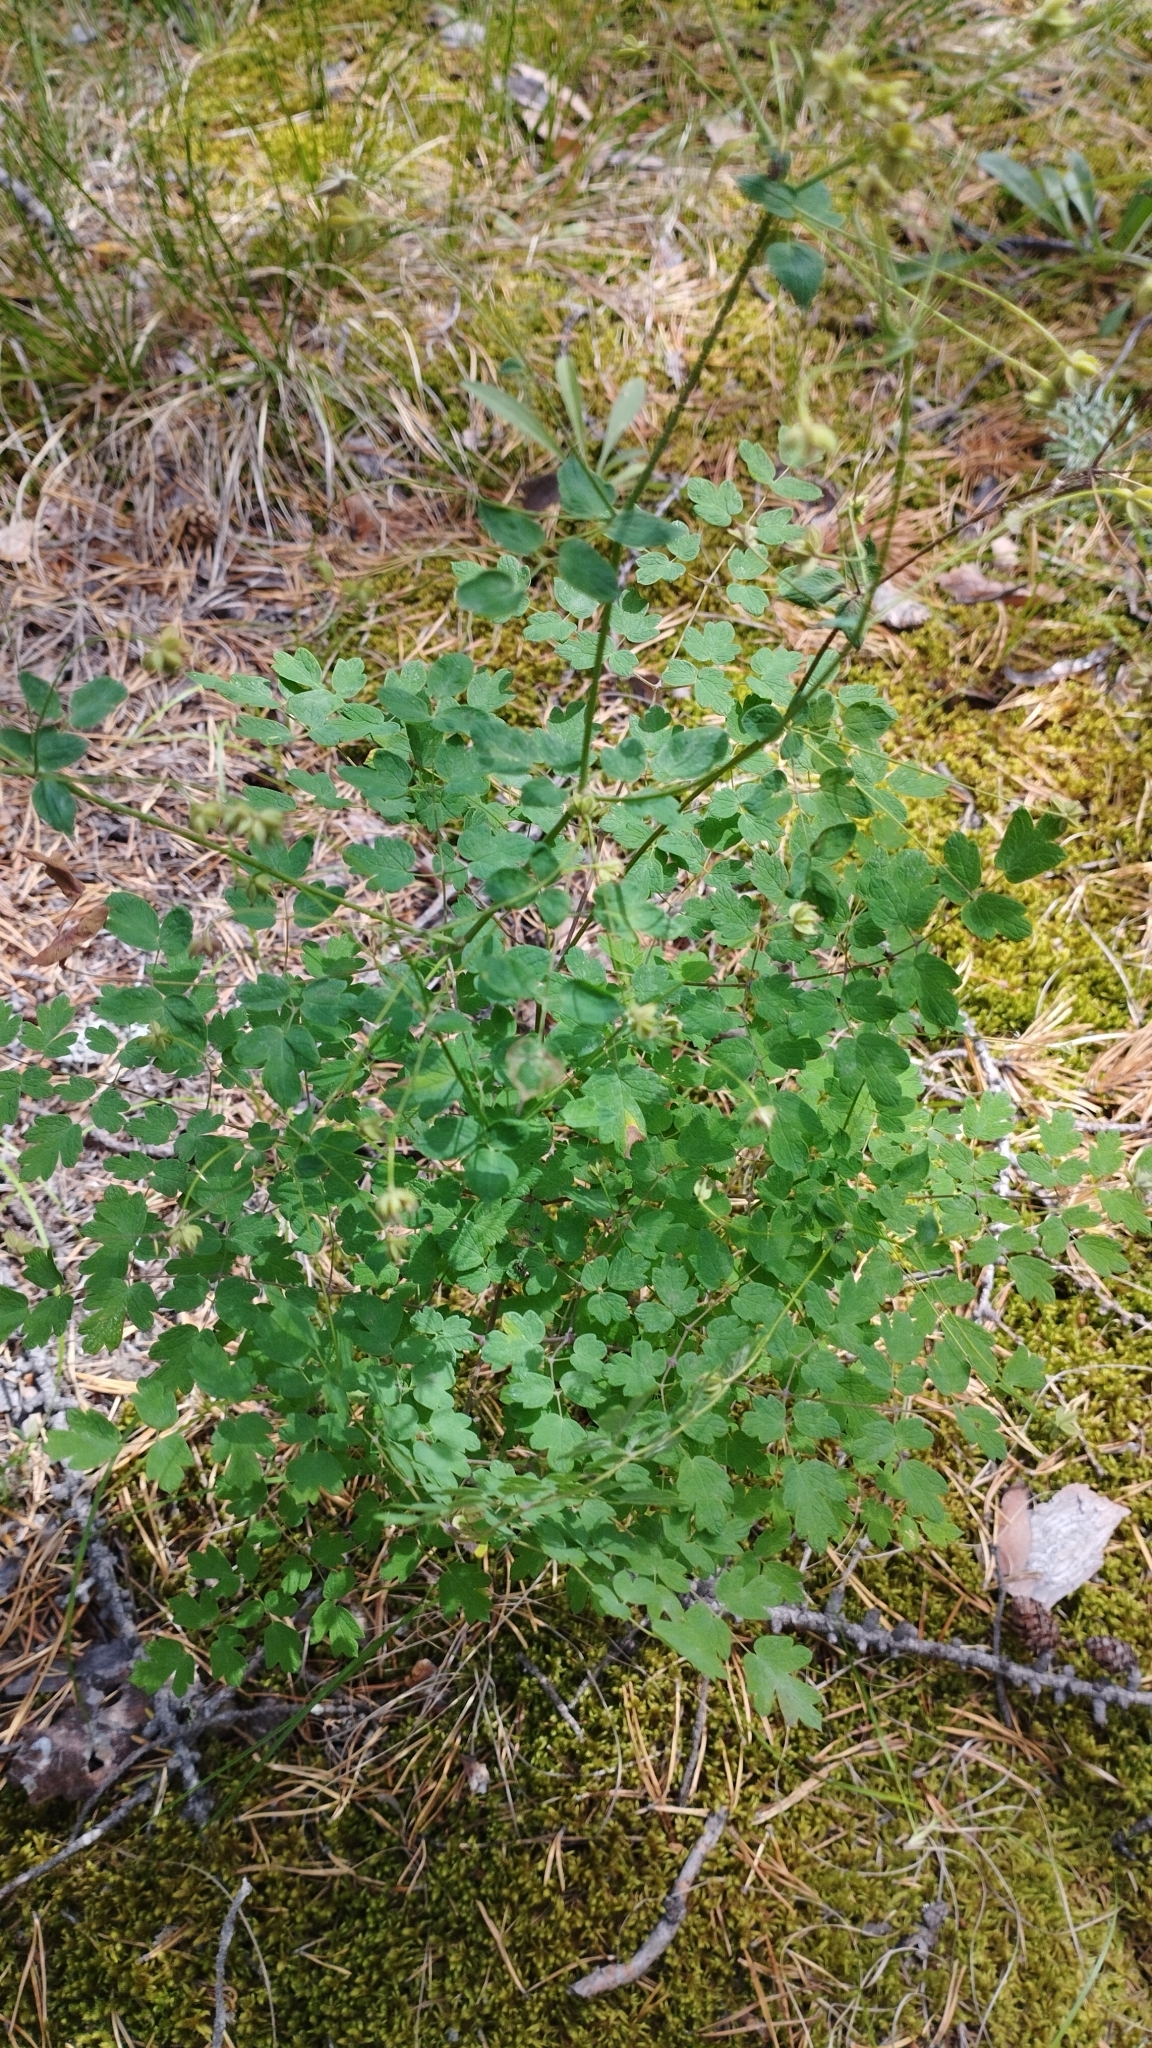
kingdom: Plantae
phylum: Tracheophyta
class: Magnoliopsida
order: Ranunculales
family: Ranunculaceae
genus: Thalictrum
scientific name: Thalictrum foetidum
